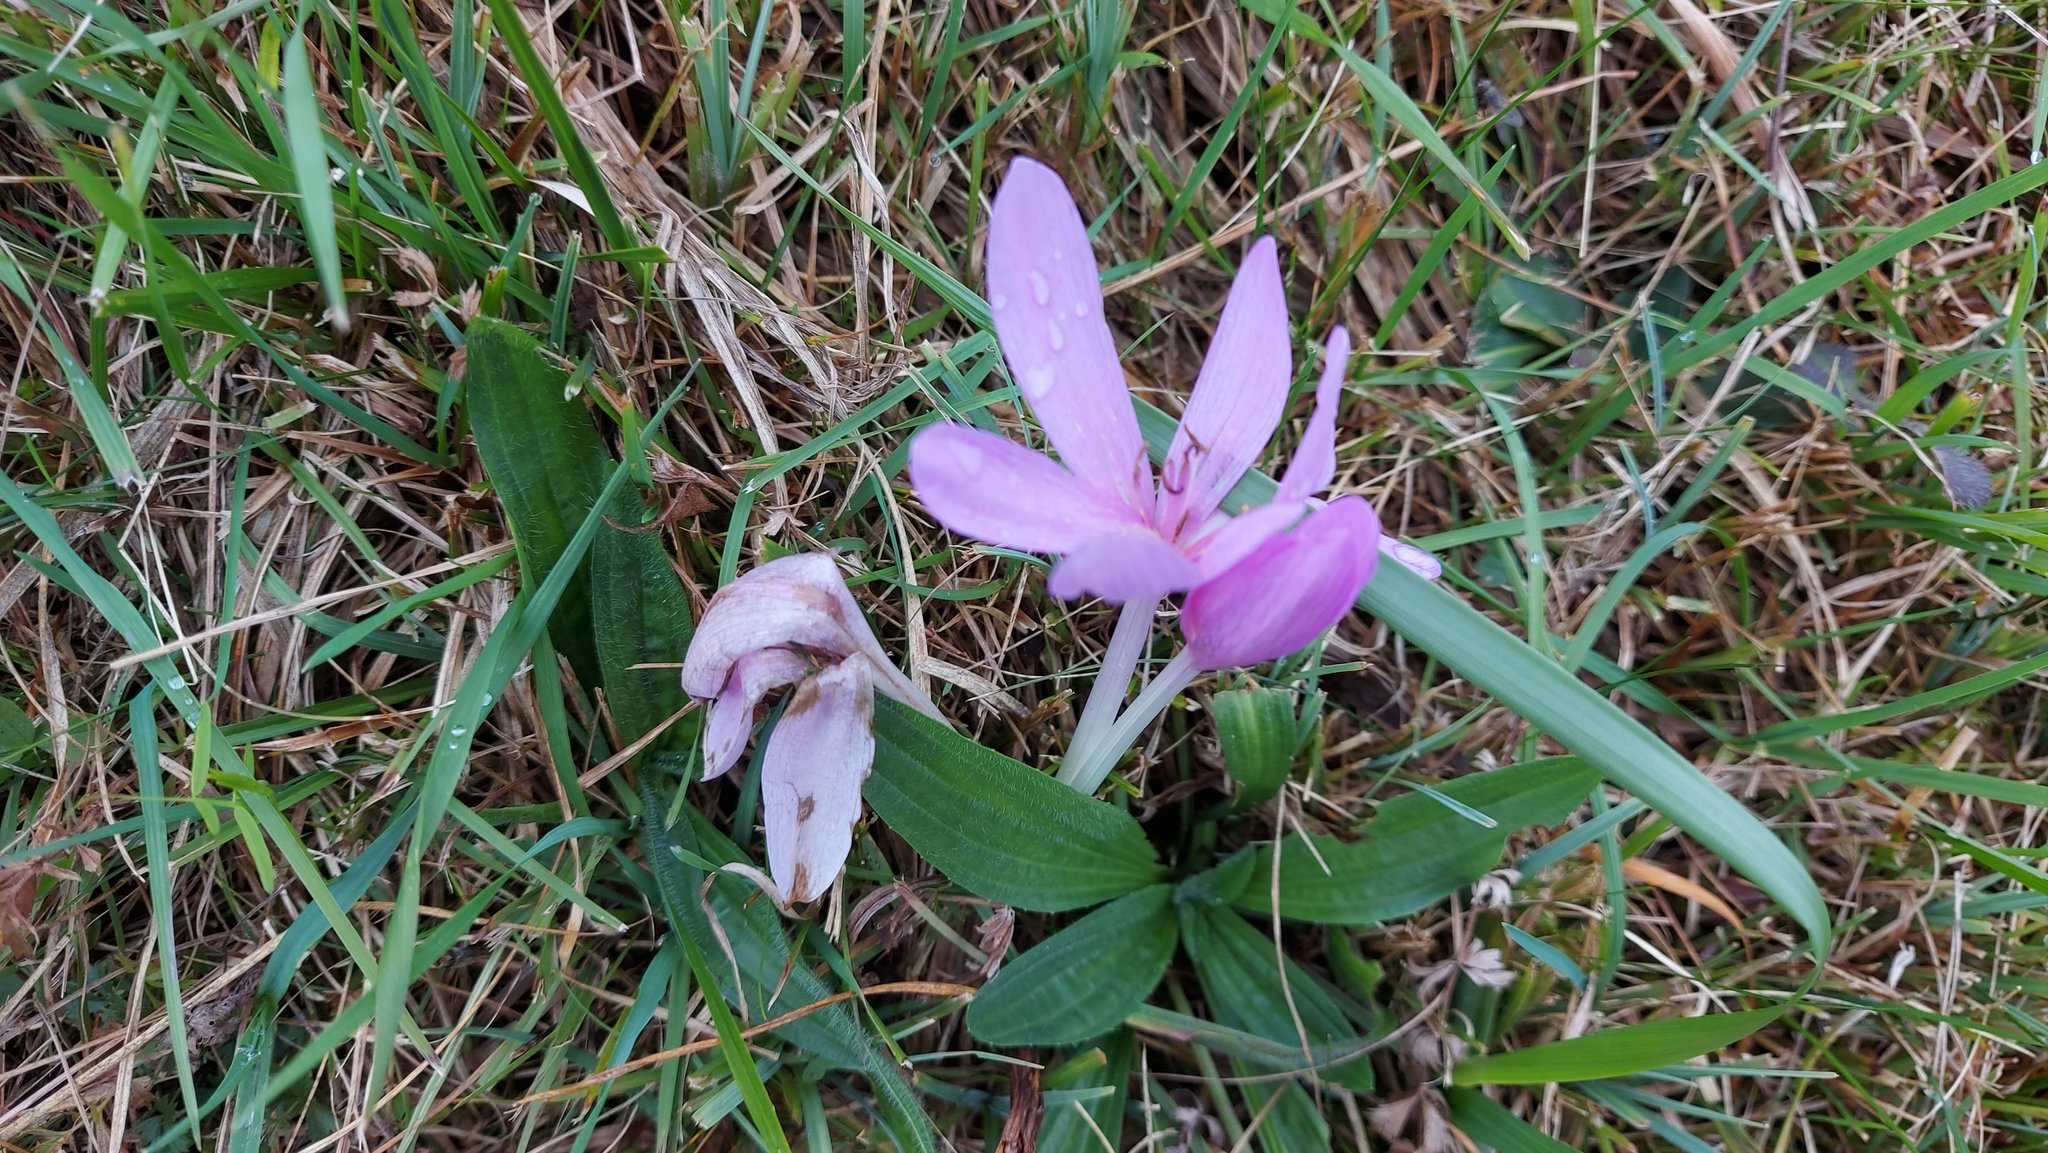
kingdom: Plantae
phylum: Tracheophyta
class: Liliopsida
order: Liliales
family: Colchicaceae
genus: Colchicum
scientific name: Colchicum autumnale
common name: Autumn crocus
